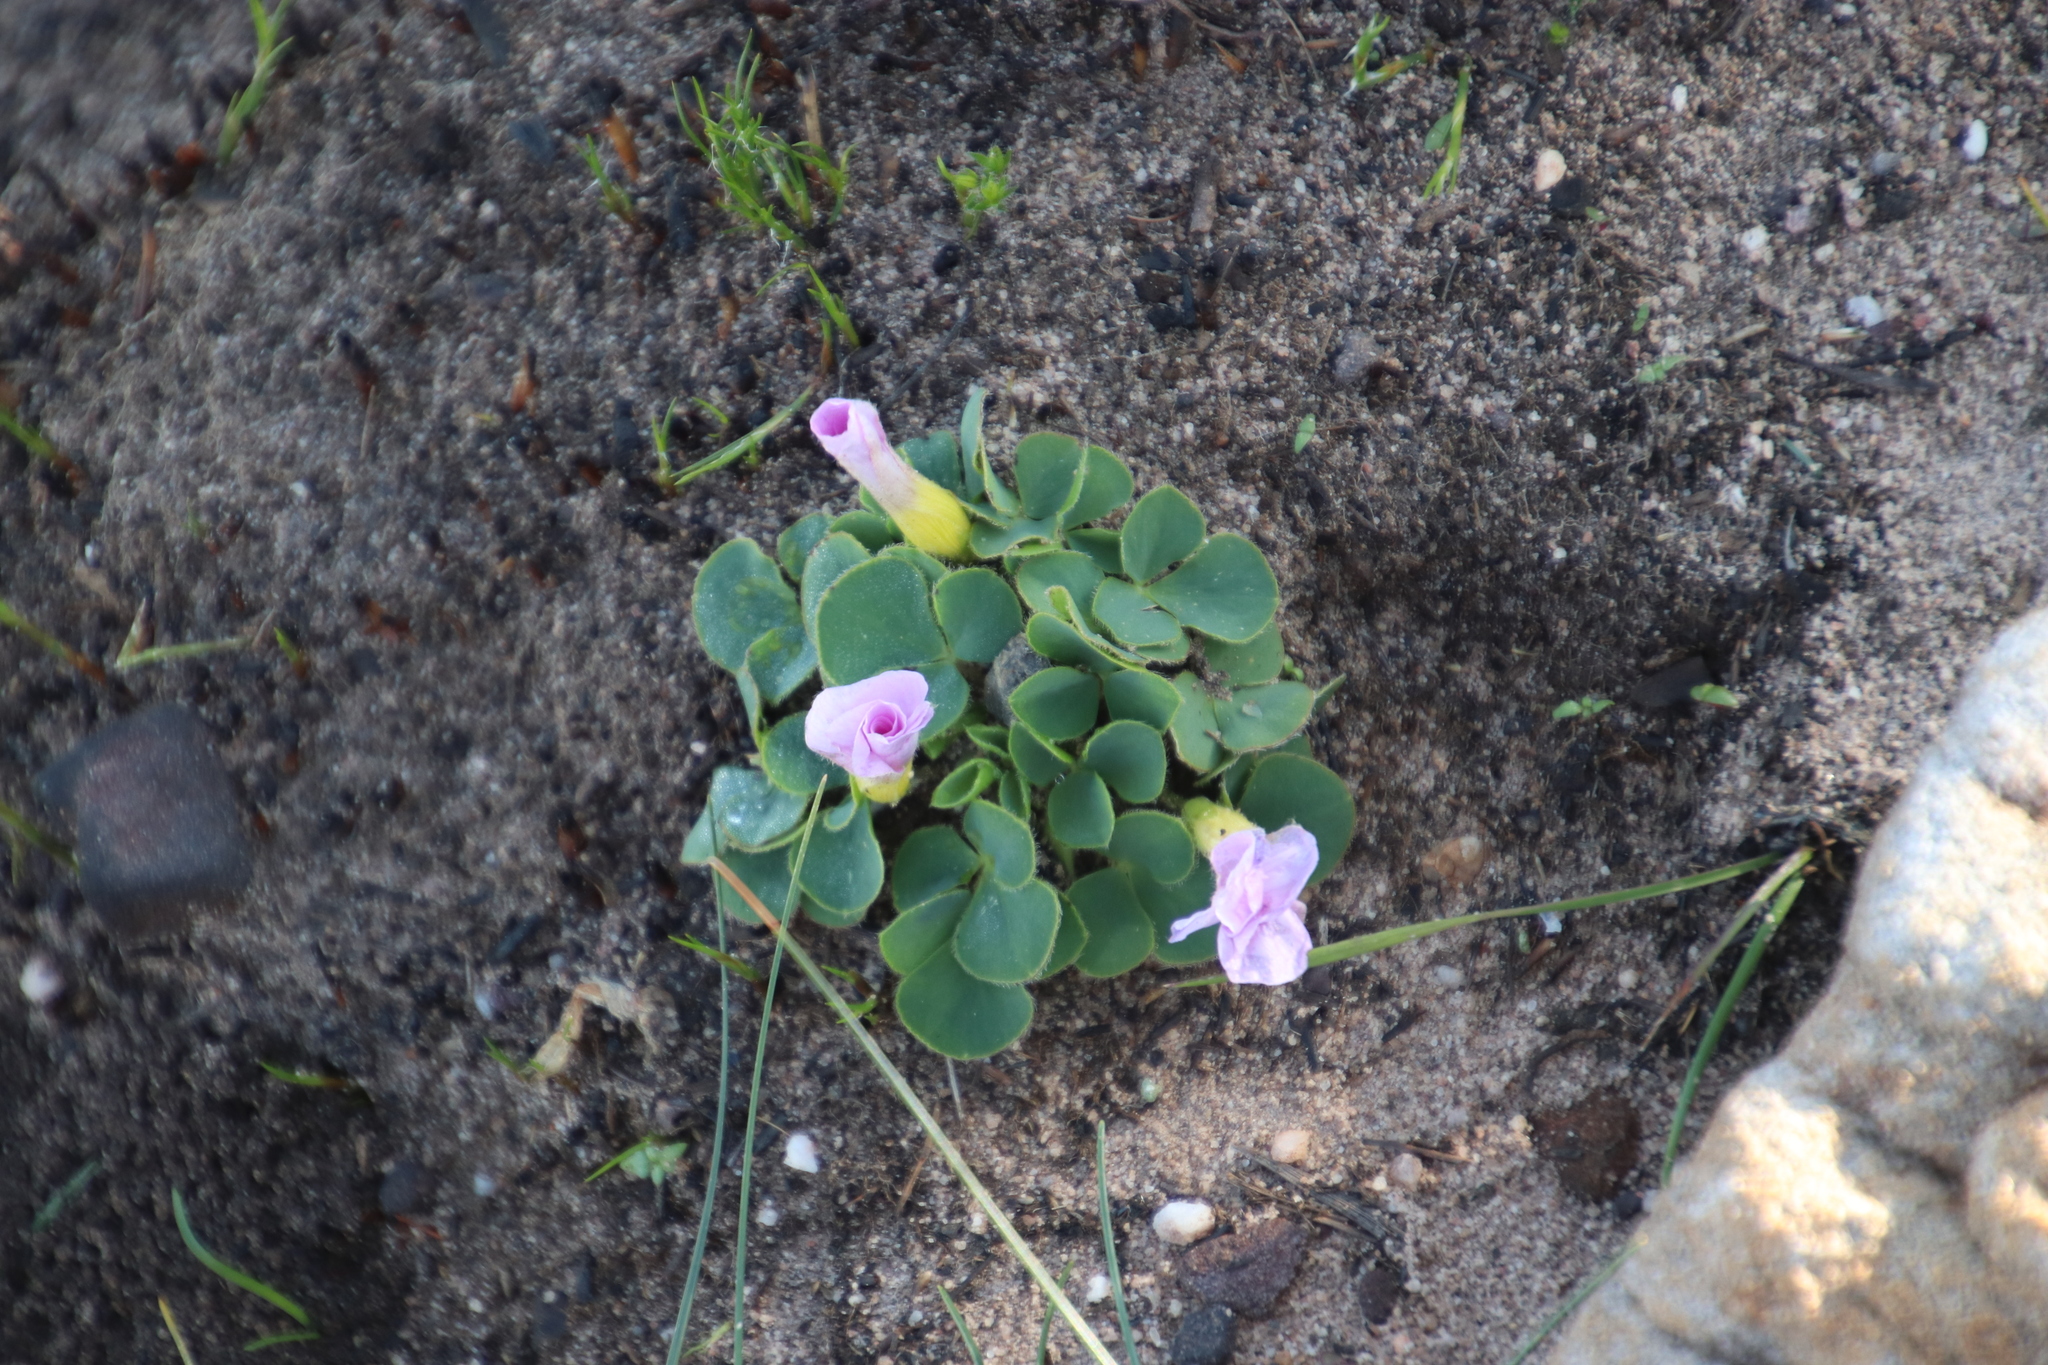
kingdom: Plantae
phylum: Tracheophyta
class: Magnoliopsida
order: Oxalidales
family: Oxalidaceae
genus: Oxalis
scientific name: Oxalis purpurea
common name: Purple woodsorrel
